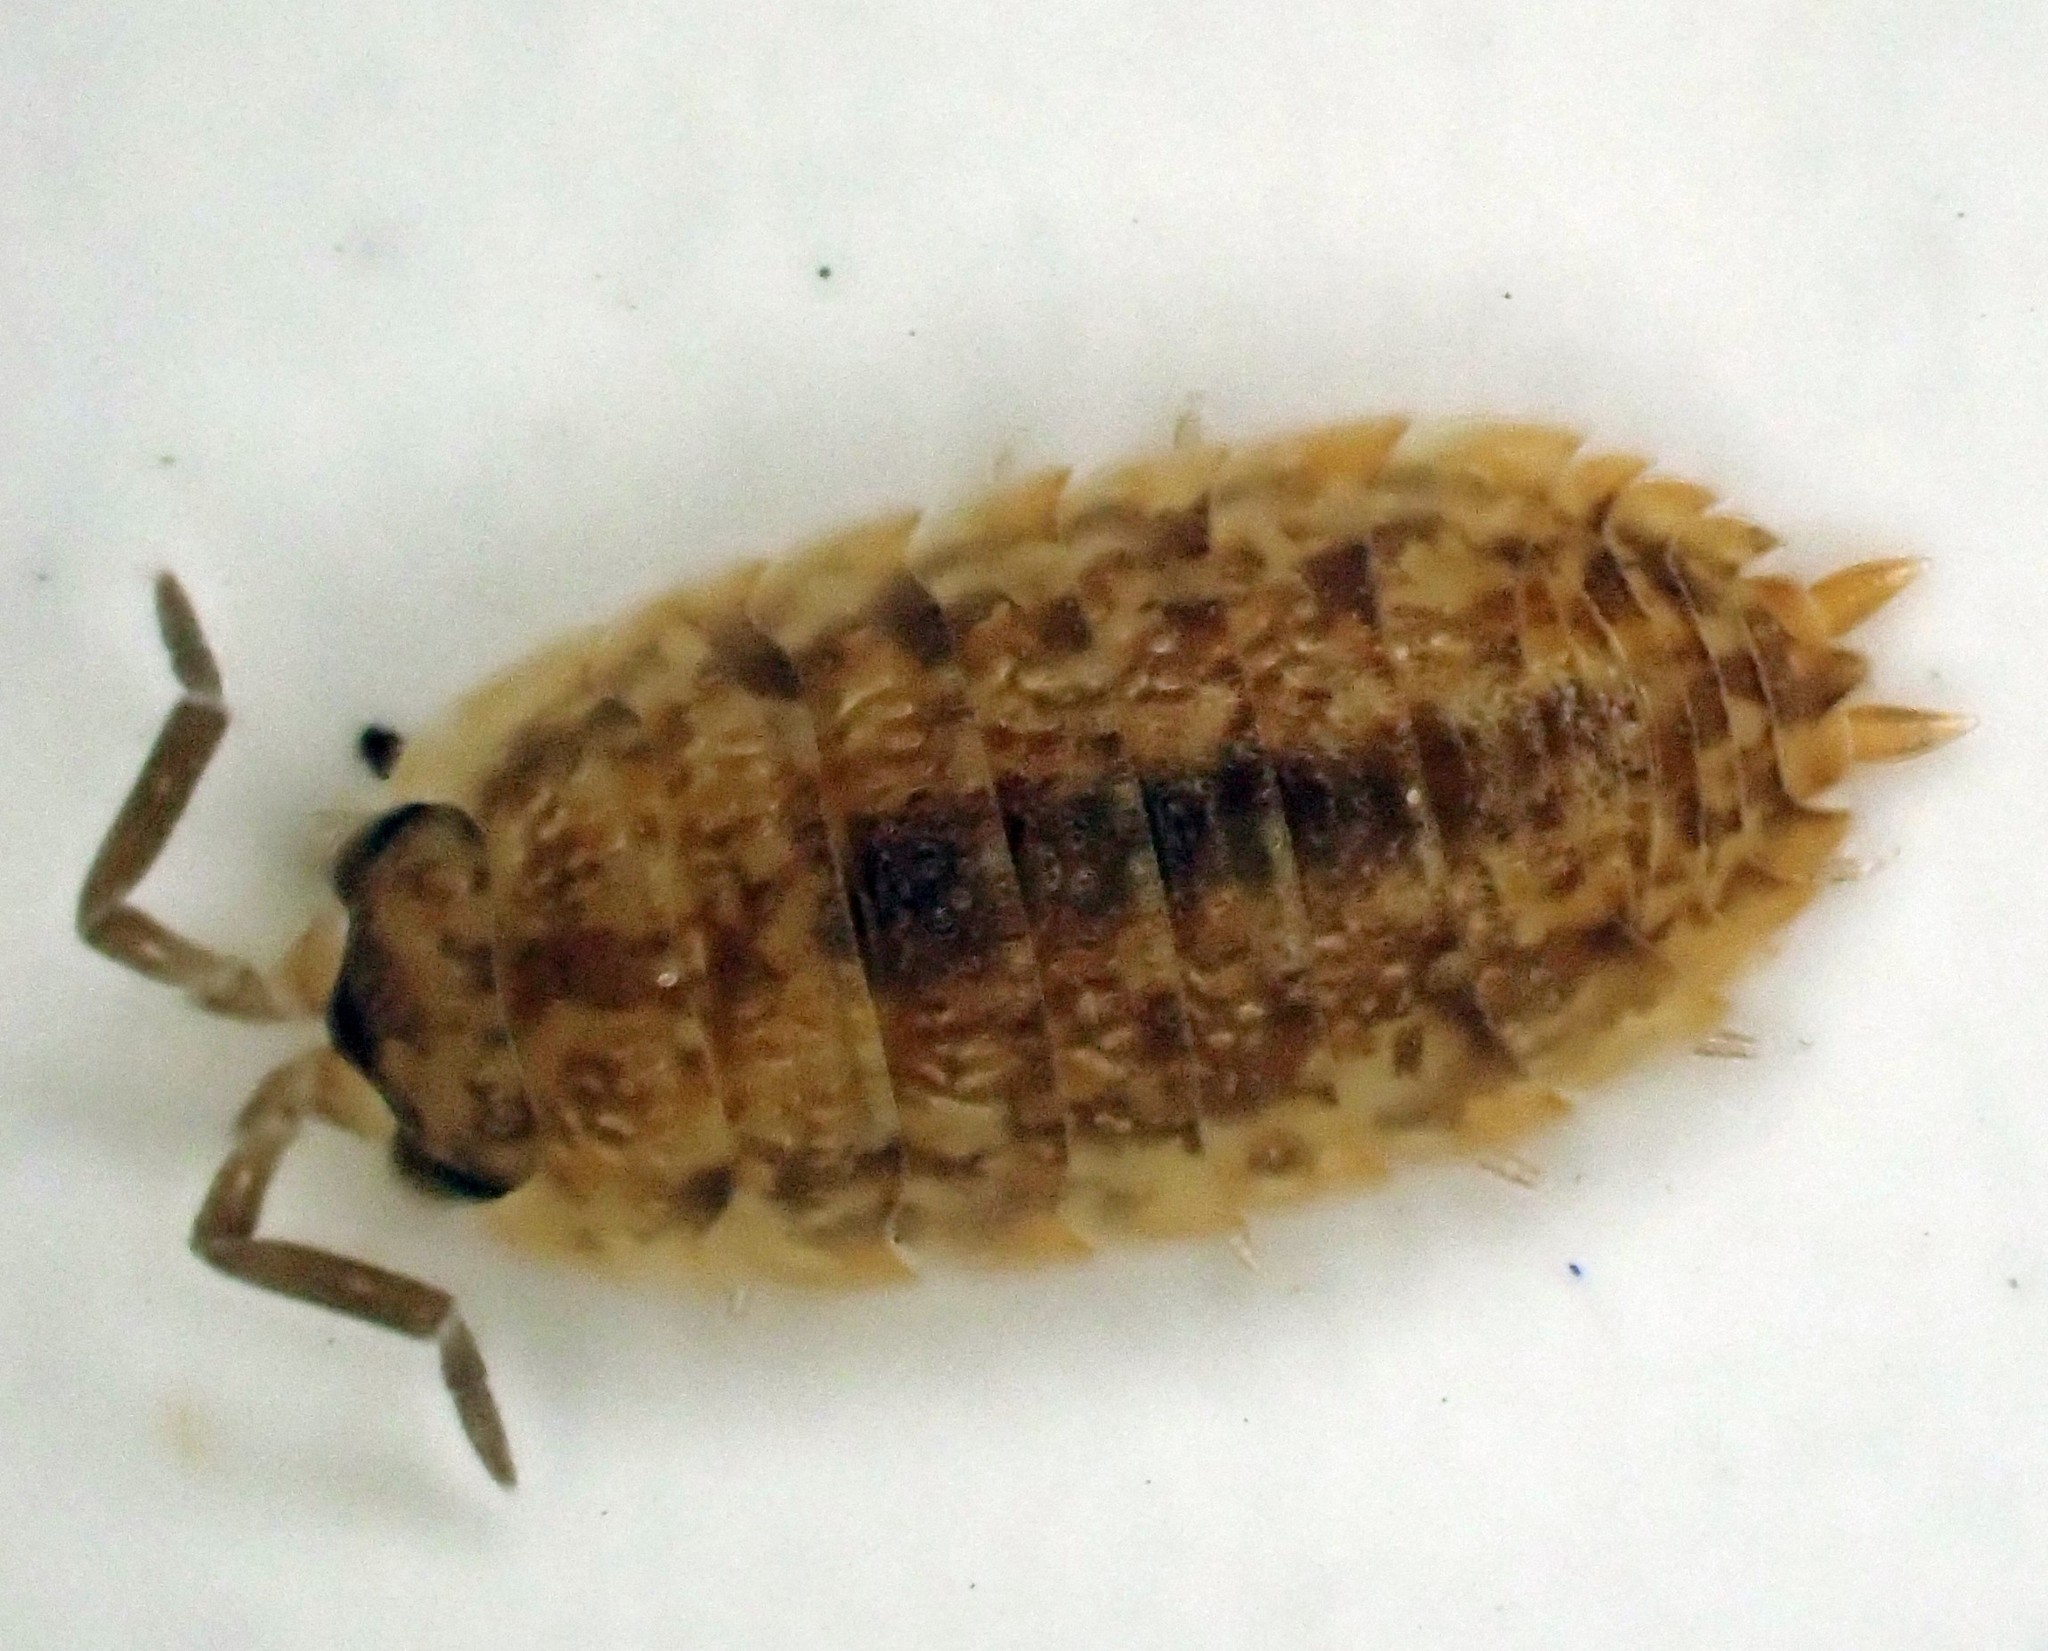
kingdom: Animalia
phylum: Arthropoda
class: Malacostraca
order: Isopoda
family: Porcellionidae
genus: Porcellio
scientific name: Porcellio scaber
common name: Common rough woodlouse
